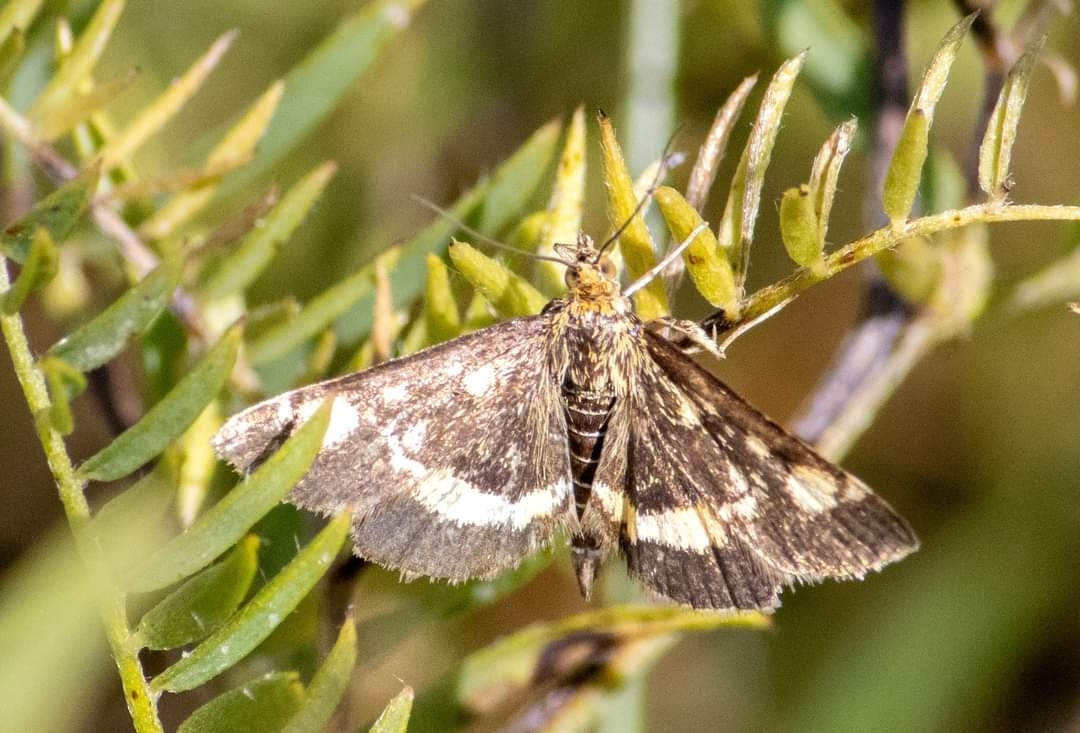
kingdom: Animalia
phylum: Arthropoda
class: Insecta
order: Lepidoptera
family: Crambidae
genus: Pyrausta
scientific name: Pyrausta aurata
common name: Small purple & gold
